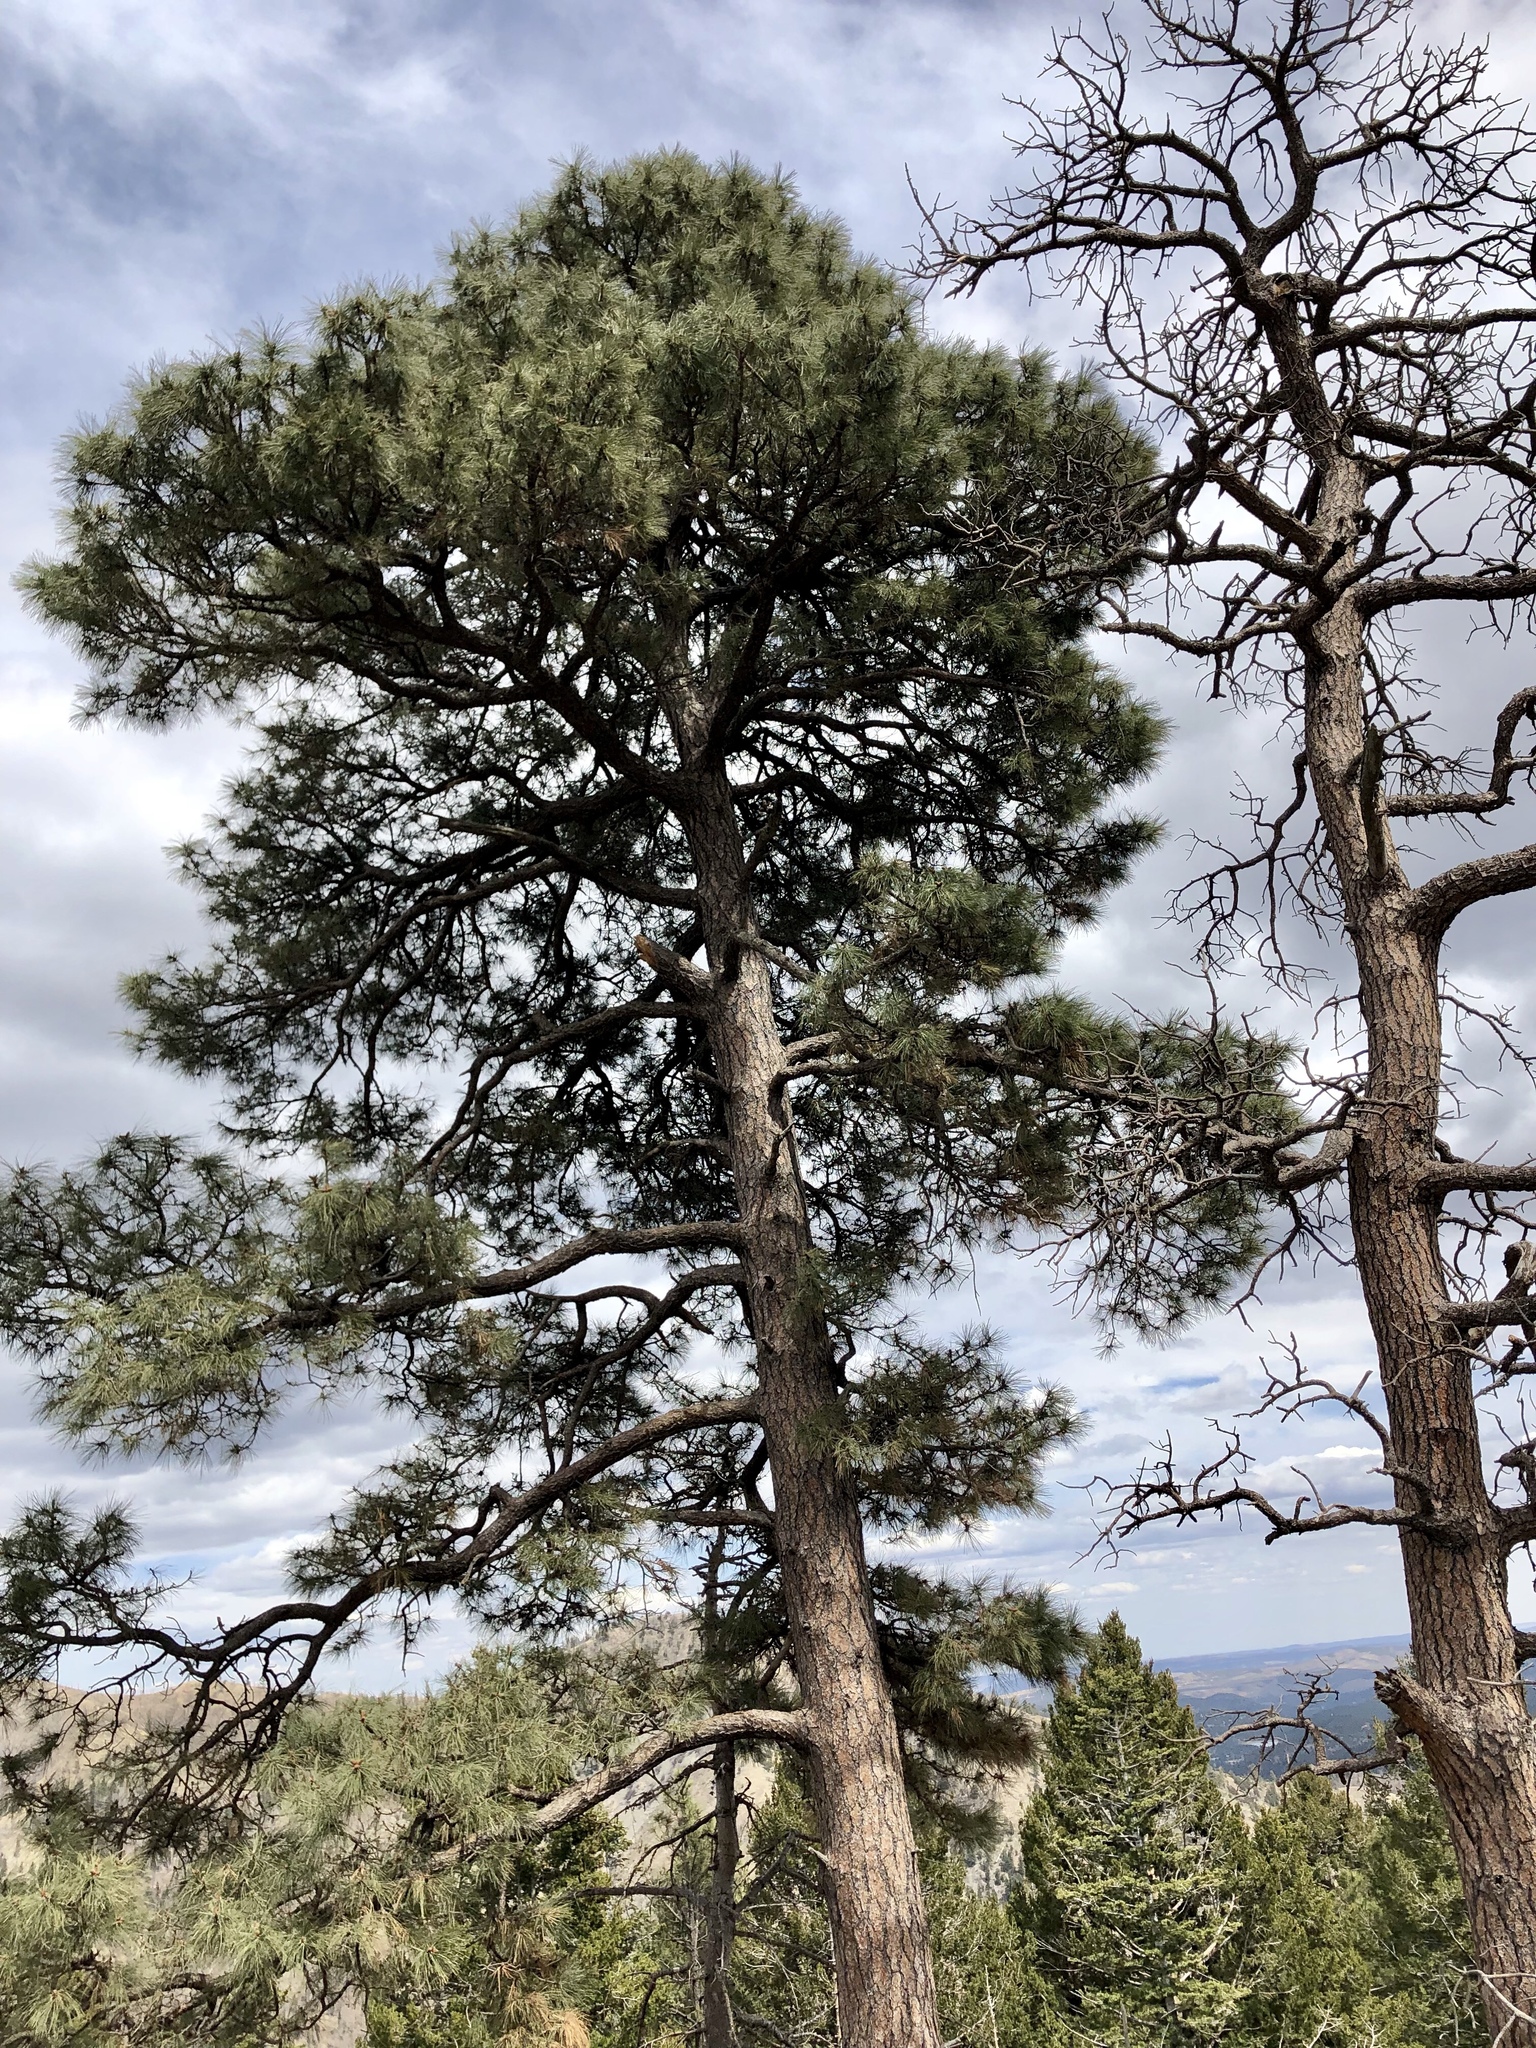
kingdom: Plantae
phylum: Tracheophyta
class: Pinopsida
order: Pinales
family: Pinaceae
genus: Pinus
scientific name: Pinus ponderosa
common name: Western yellow-pine
